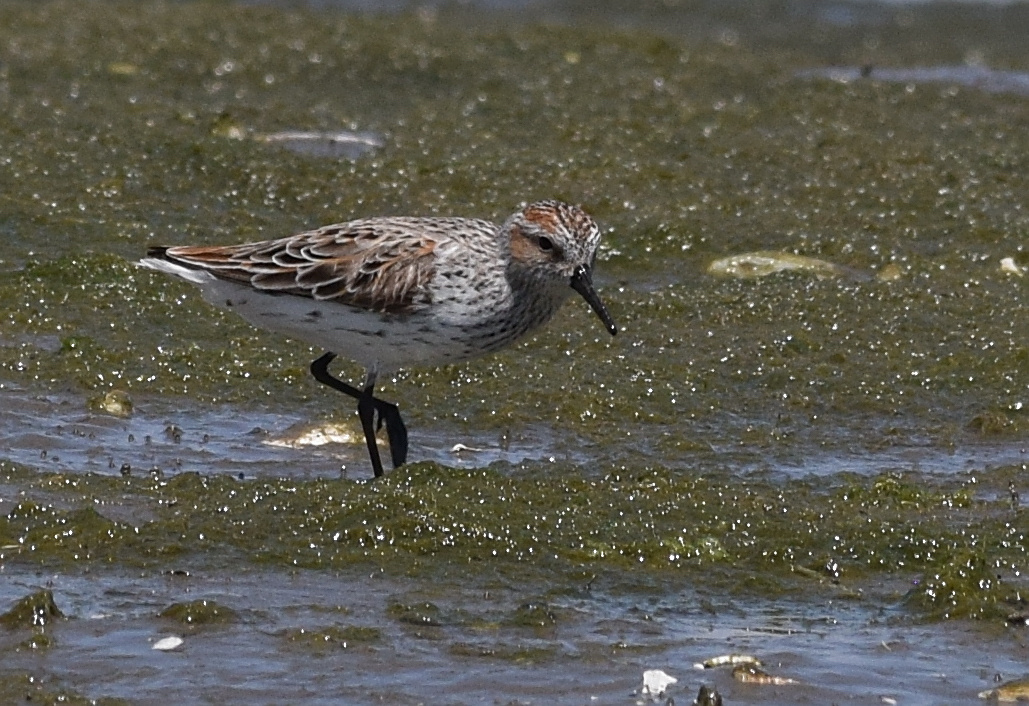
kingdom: Animalia
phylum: Chordata
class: Aves
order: Charadriiformes
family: Scolopacidae
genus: Calidris
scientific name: Calidris mauri
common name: Western sandpiper
